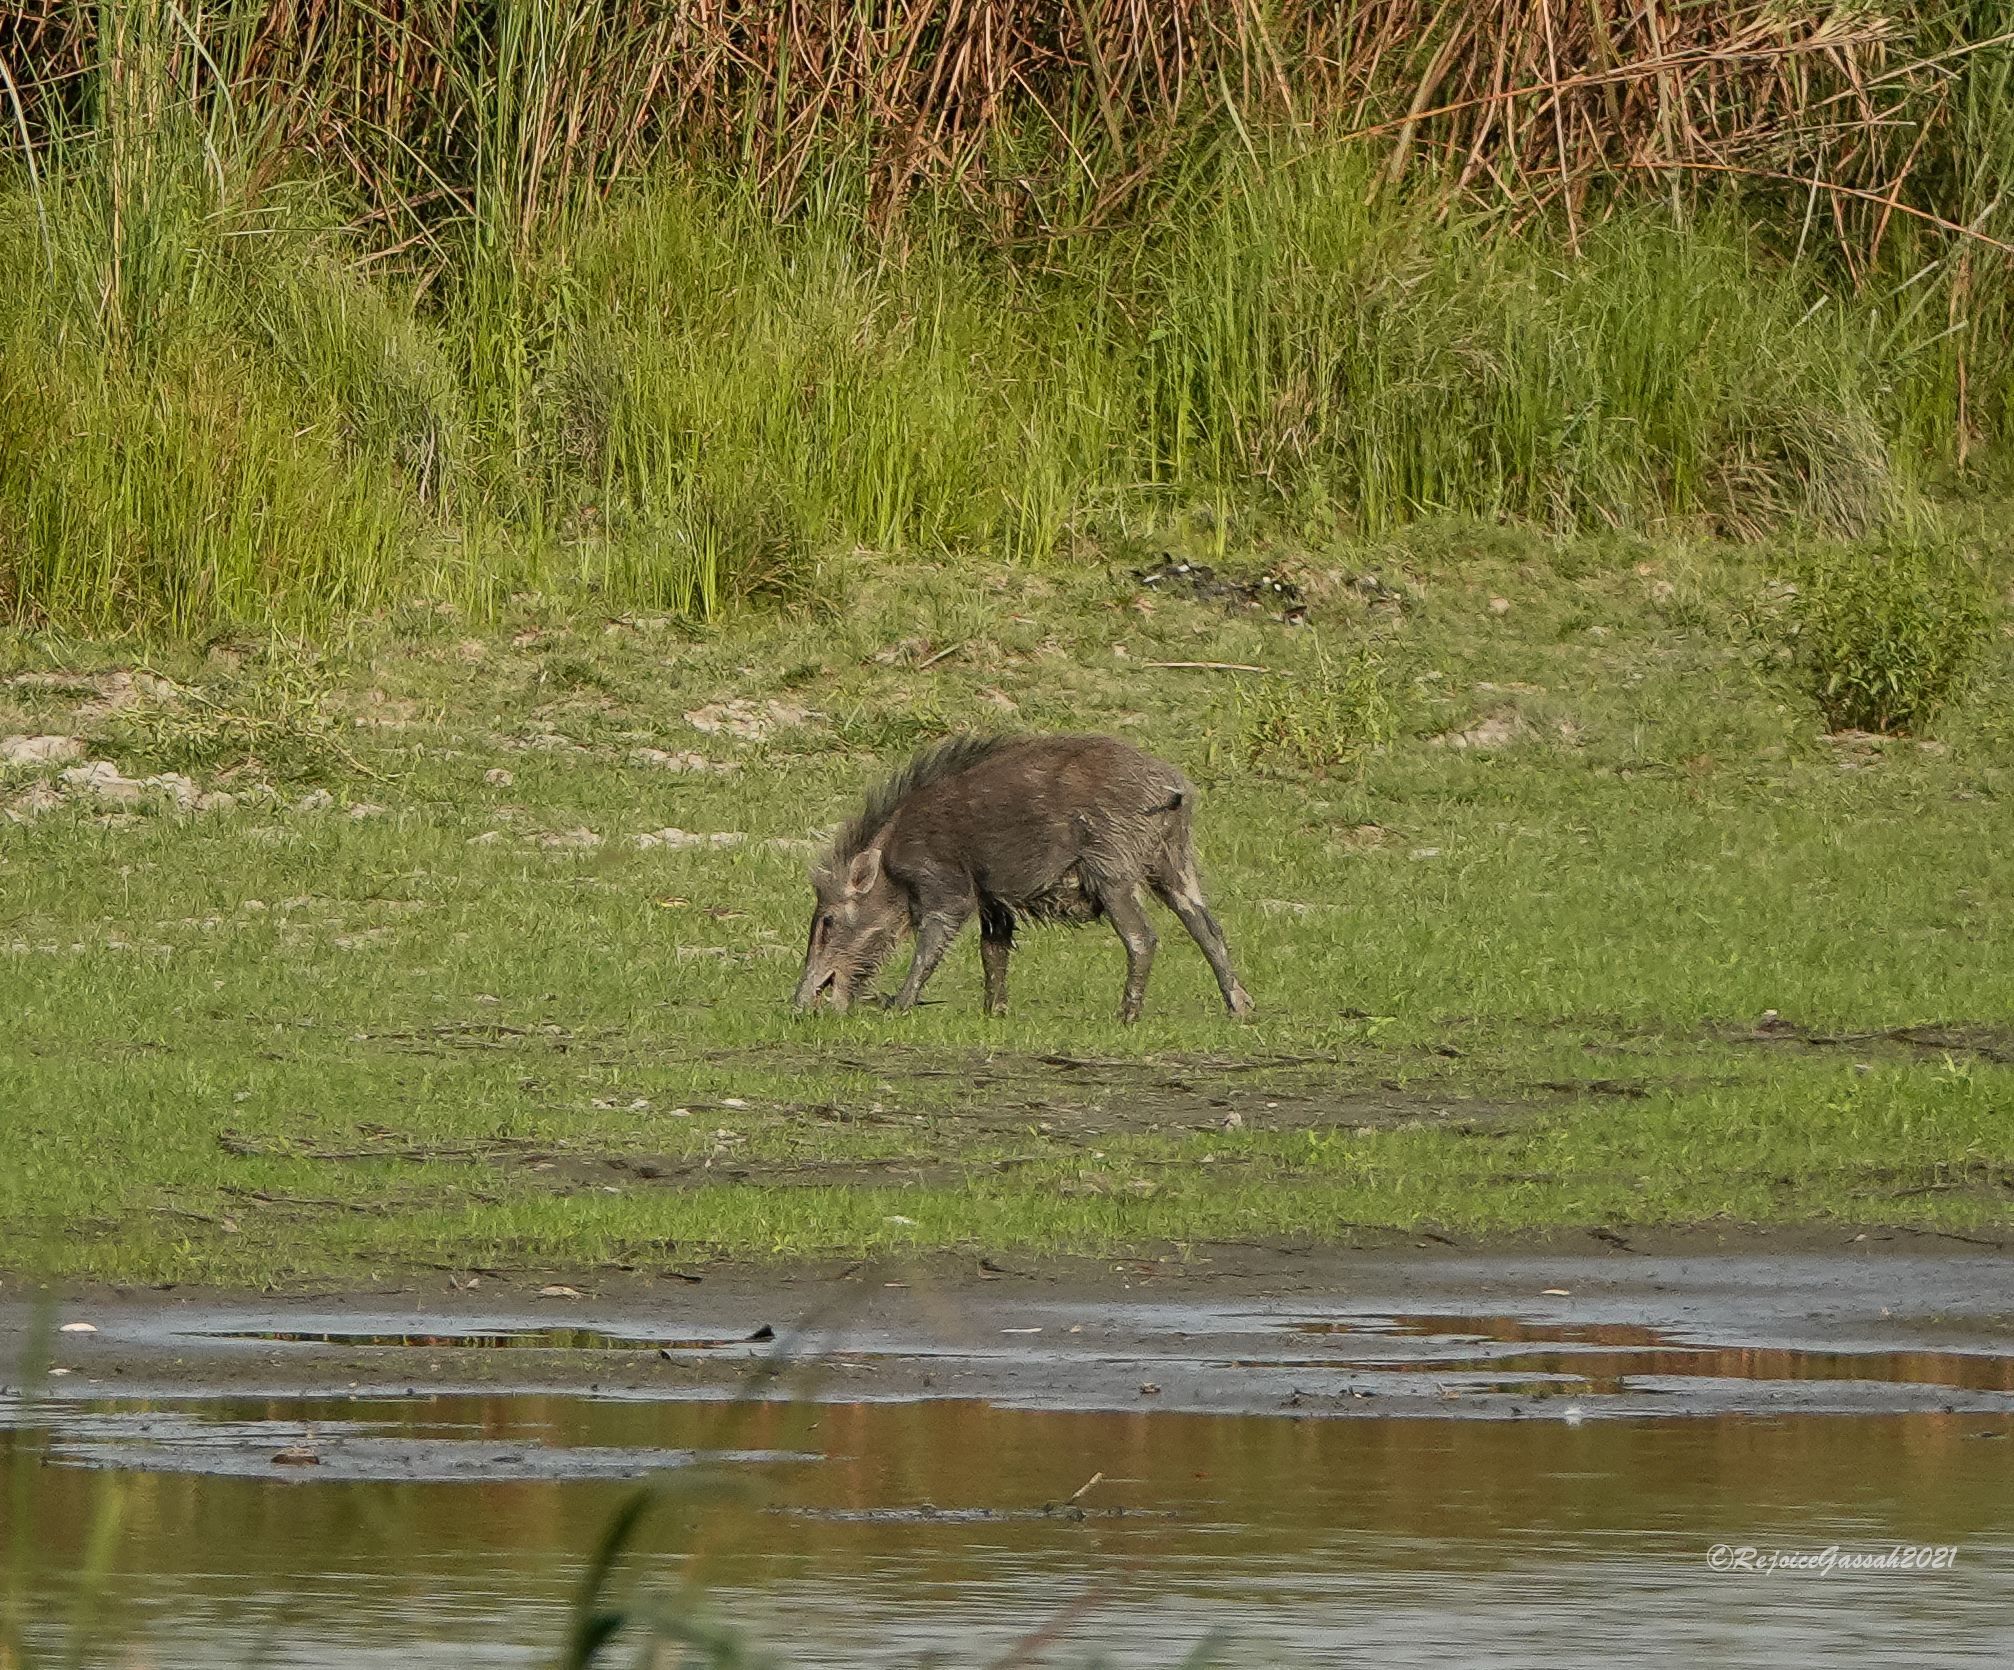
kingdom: Animalia
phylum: Chordata
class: Mammalia
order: Artiodactyla
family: Suidae
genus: Sus
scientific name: Sus scrofa
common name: Wild boar
